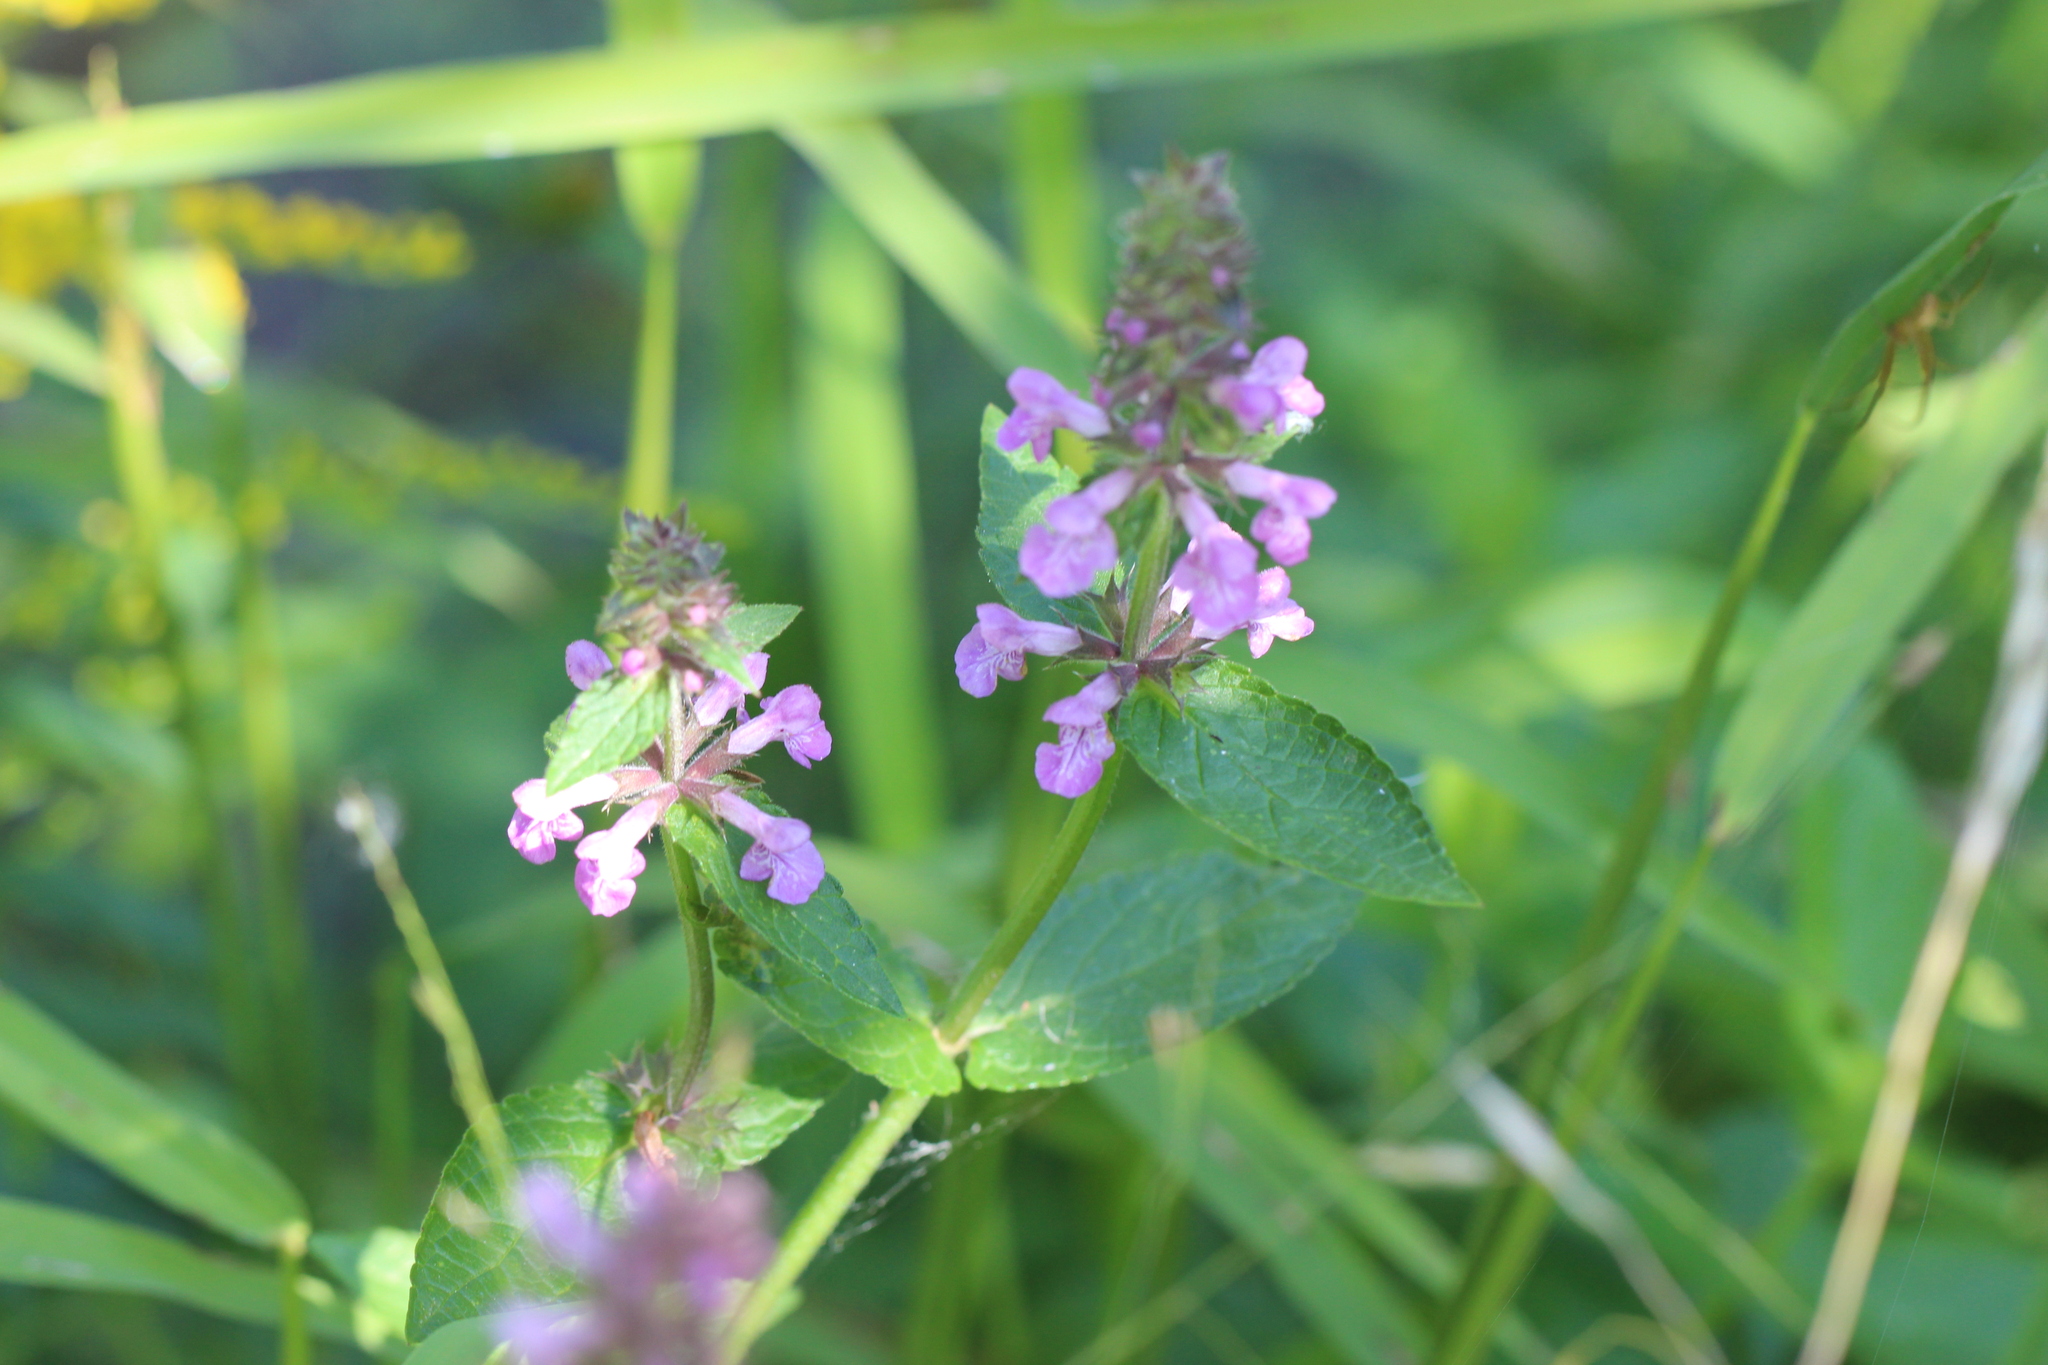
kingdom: Plantae
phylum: Tracheophyta
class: Magnoliopsida
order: Lamiales
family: Lamiaceae
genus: Stachys
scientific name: Stachys palustris
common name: Marsh woundwort
